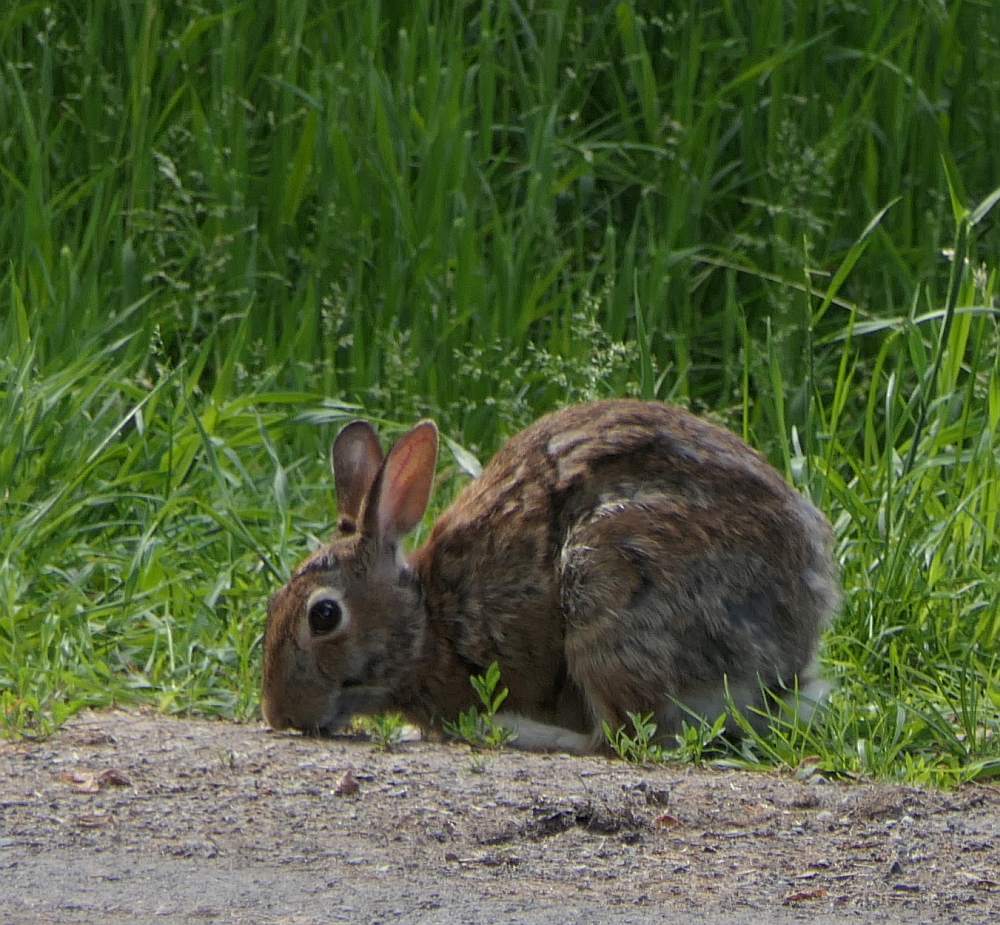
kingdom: Animalia
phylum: Chordata
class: Mammalia
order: Lagomorpha
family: Leporidae
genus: Sylvilagus
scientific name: Sylvilagus floridanus
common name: Eastern cottontail
